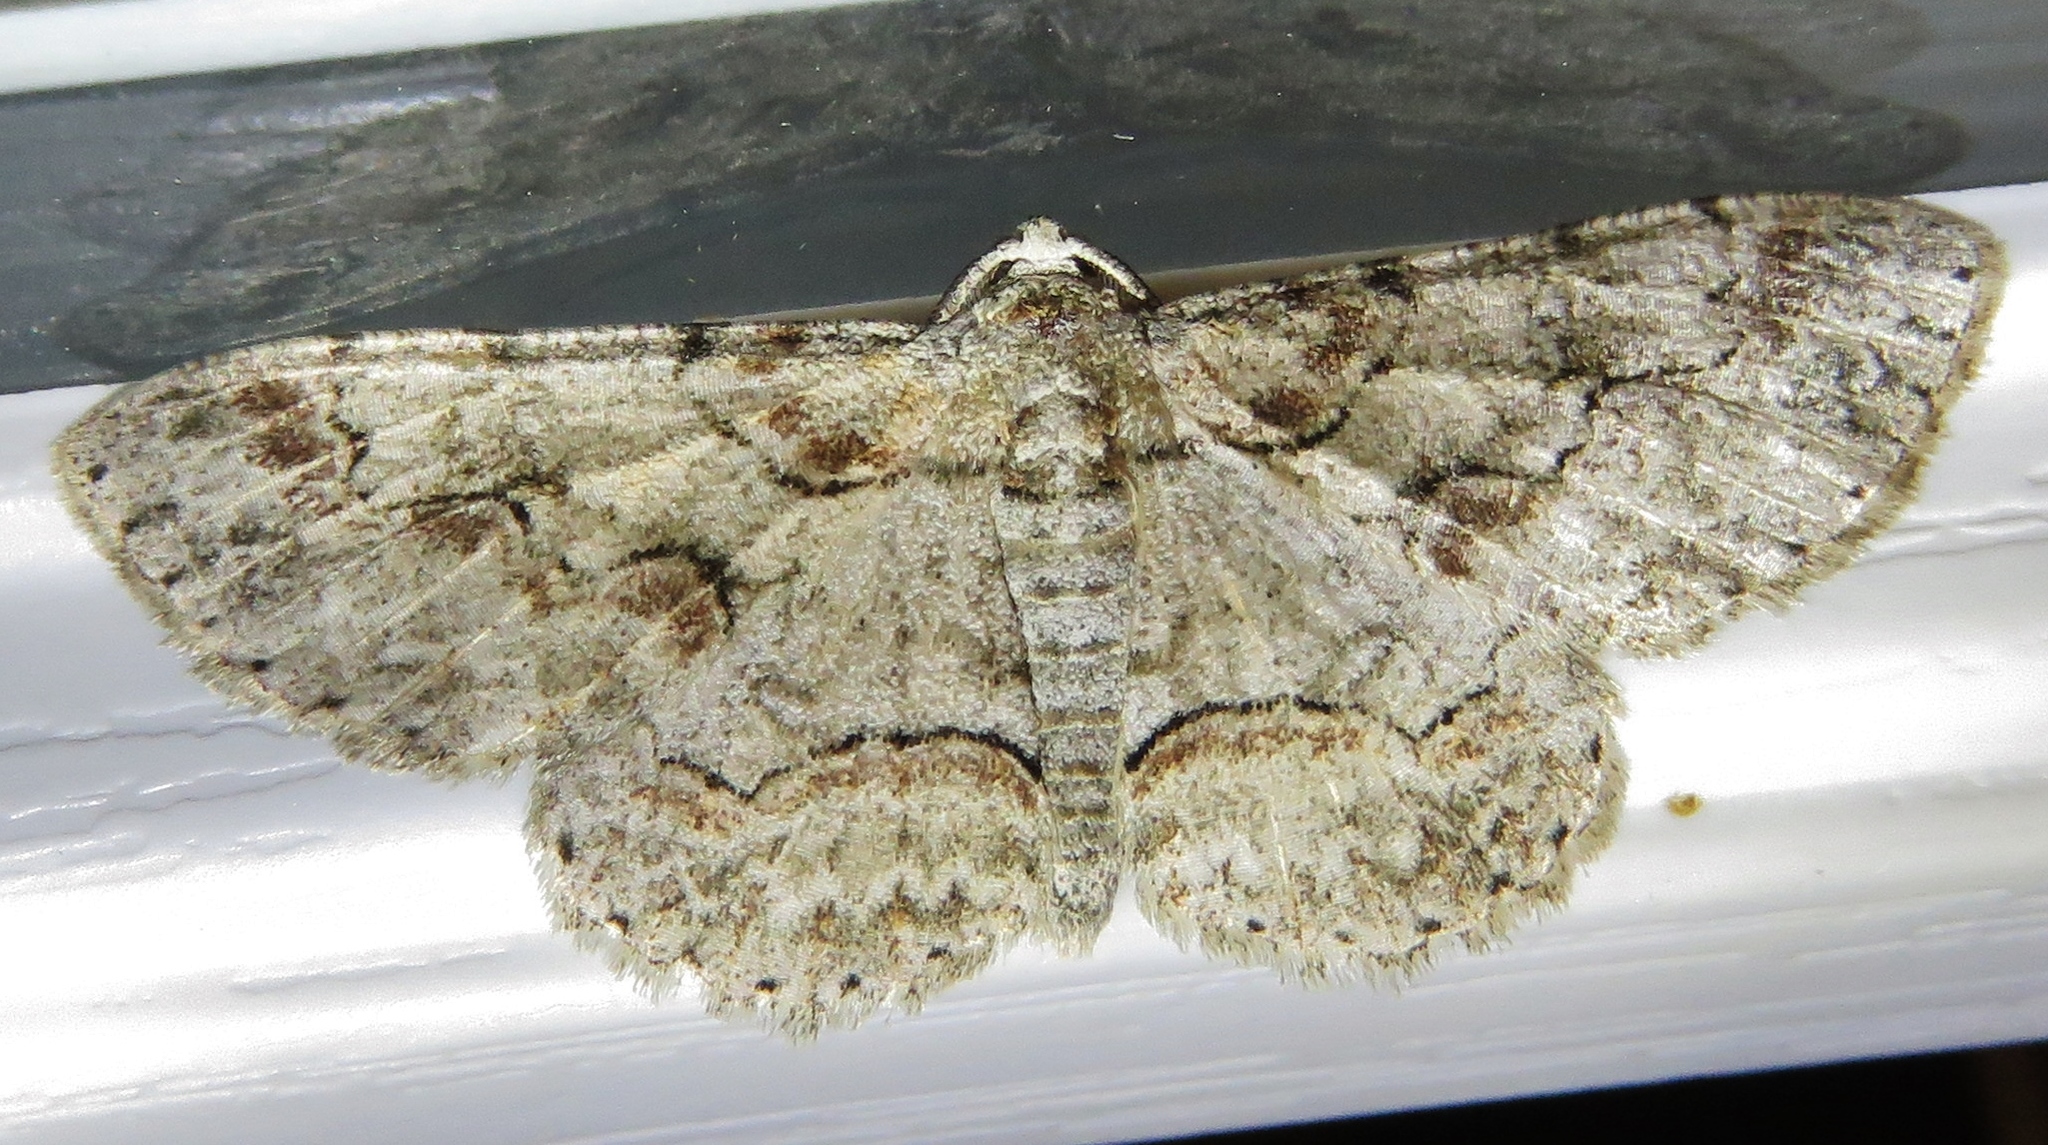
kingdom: Animalia
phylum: Arthropoda
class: Insecta
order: Lepidoptera
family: Geometridae
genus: Iridopsis
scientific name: Iridopsis defectaria
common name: Brown-shaded gray
